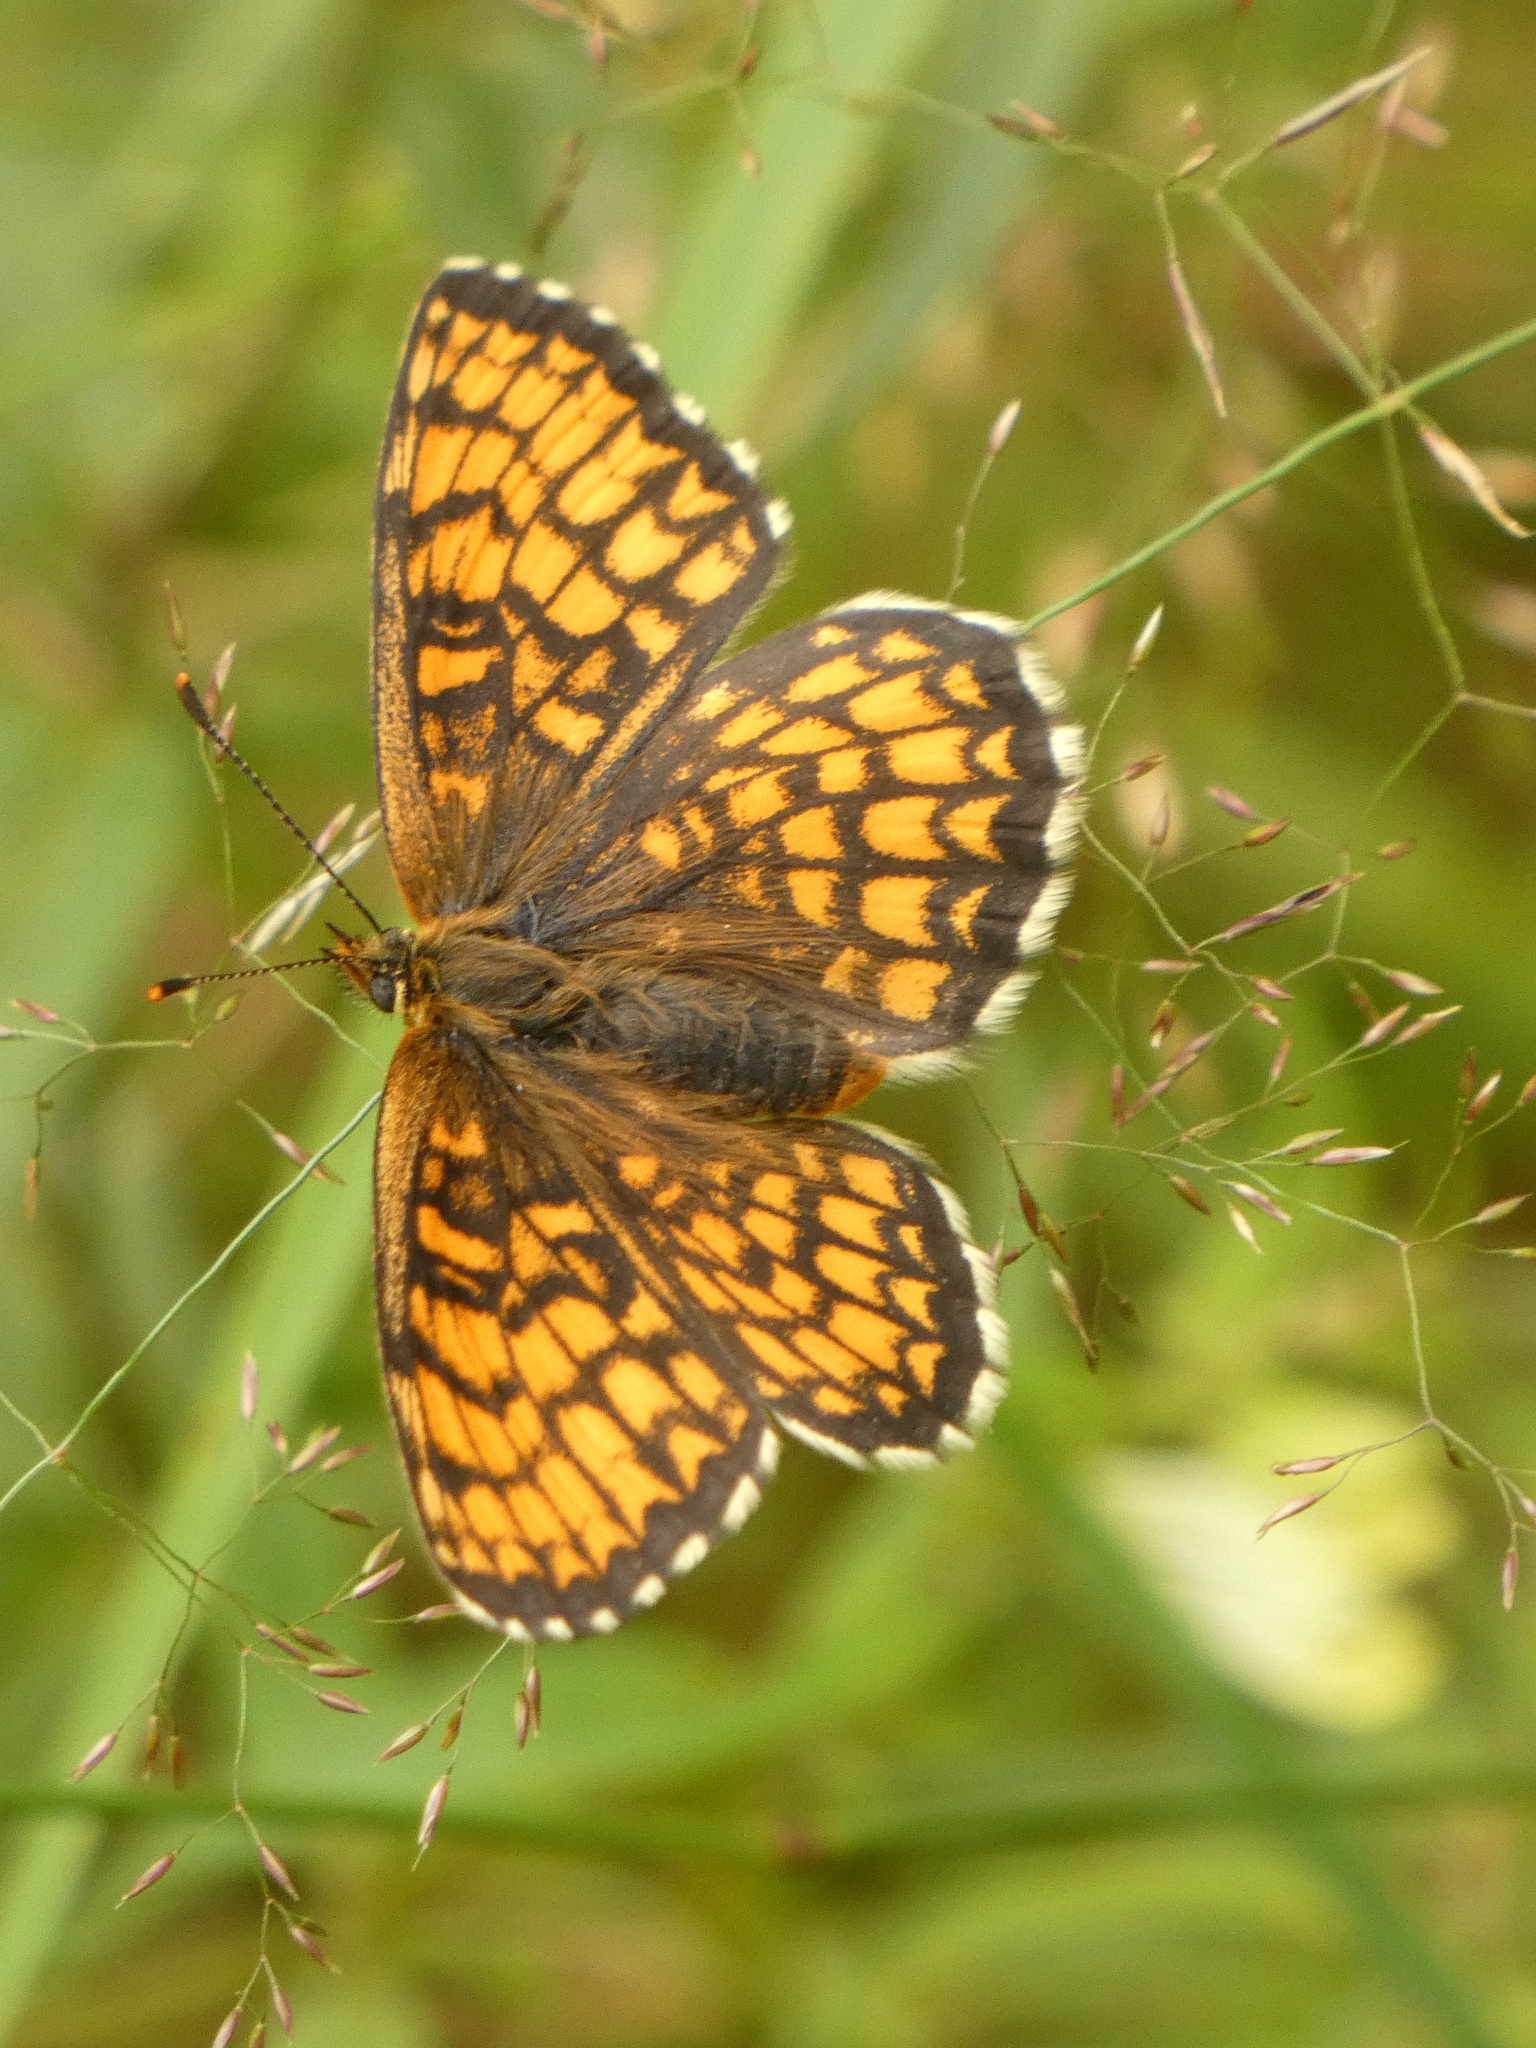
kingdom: Animalia
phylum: Arthropoda
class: Insecta
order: Lepidoptera
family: Nymphalidae
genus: Melitaea
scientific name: Melitaea athalia
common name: Heath fritillary
